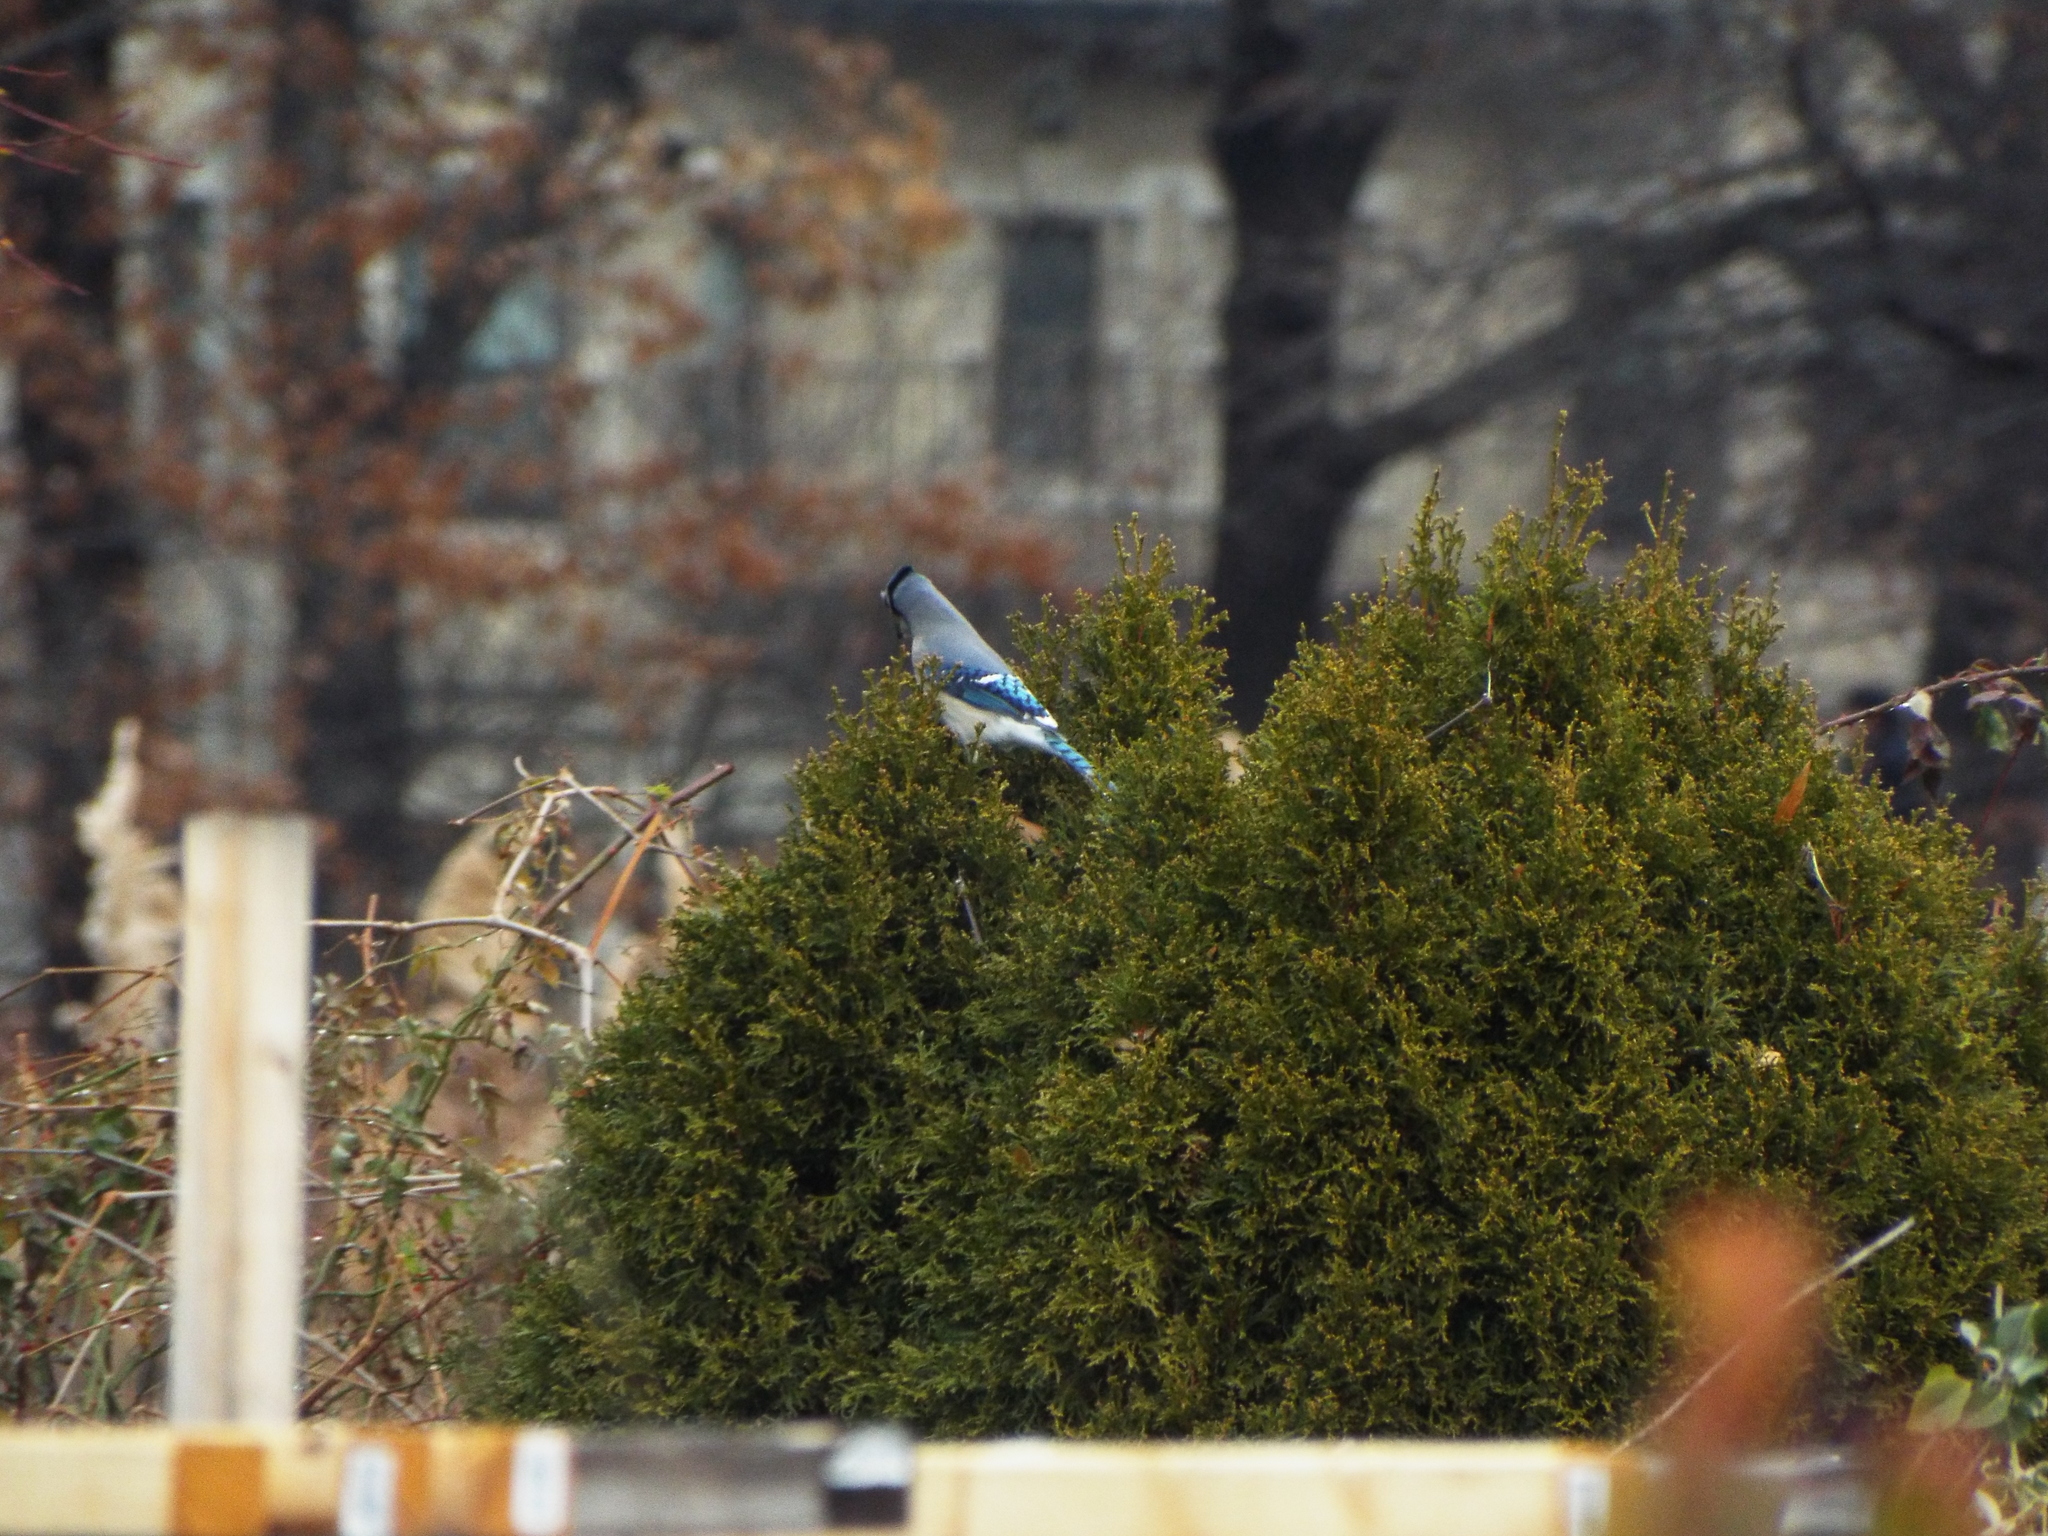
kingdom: Animalia
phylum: Chordata
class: Aves
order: Passeriformes
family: Corvidae
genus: Cyanocitta
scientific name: Cyanocitta cristata
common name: Blue jay
